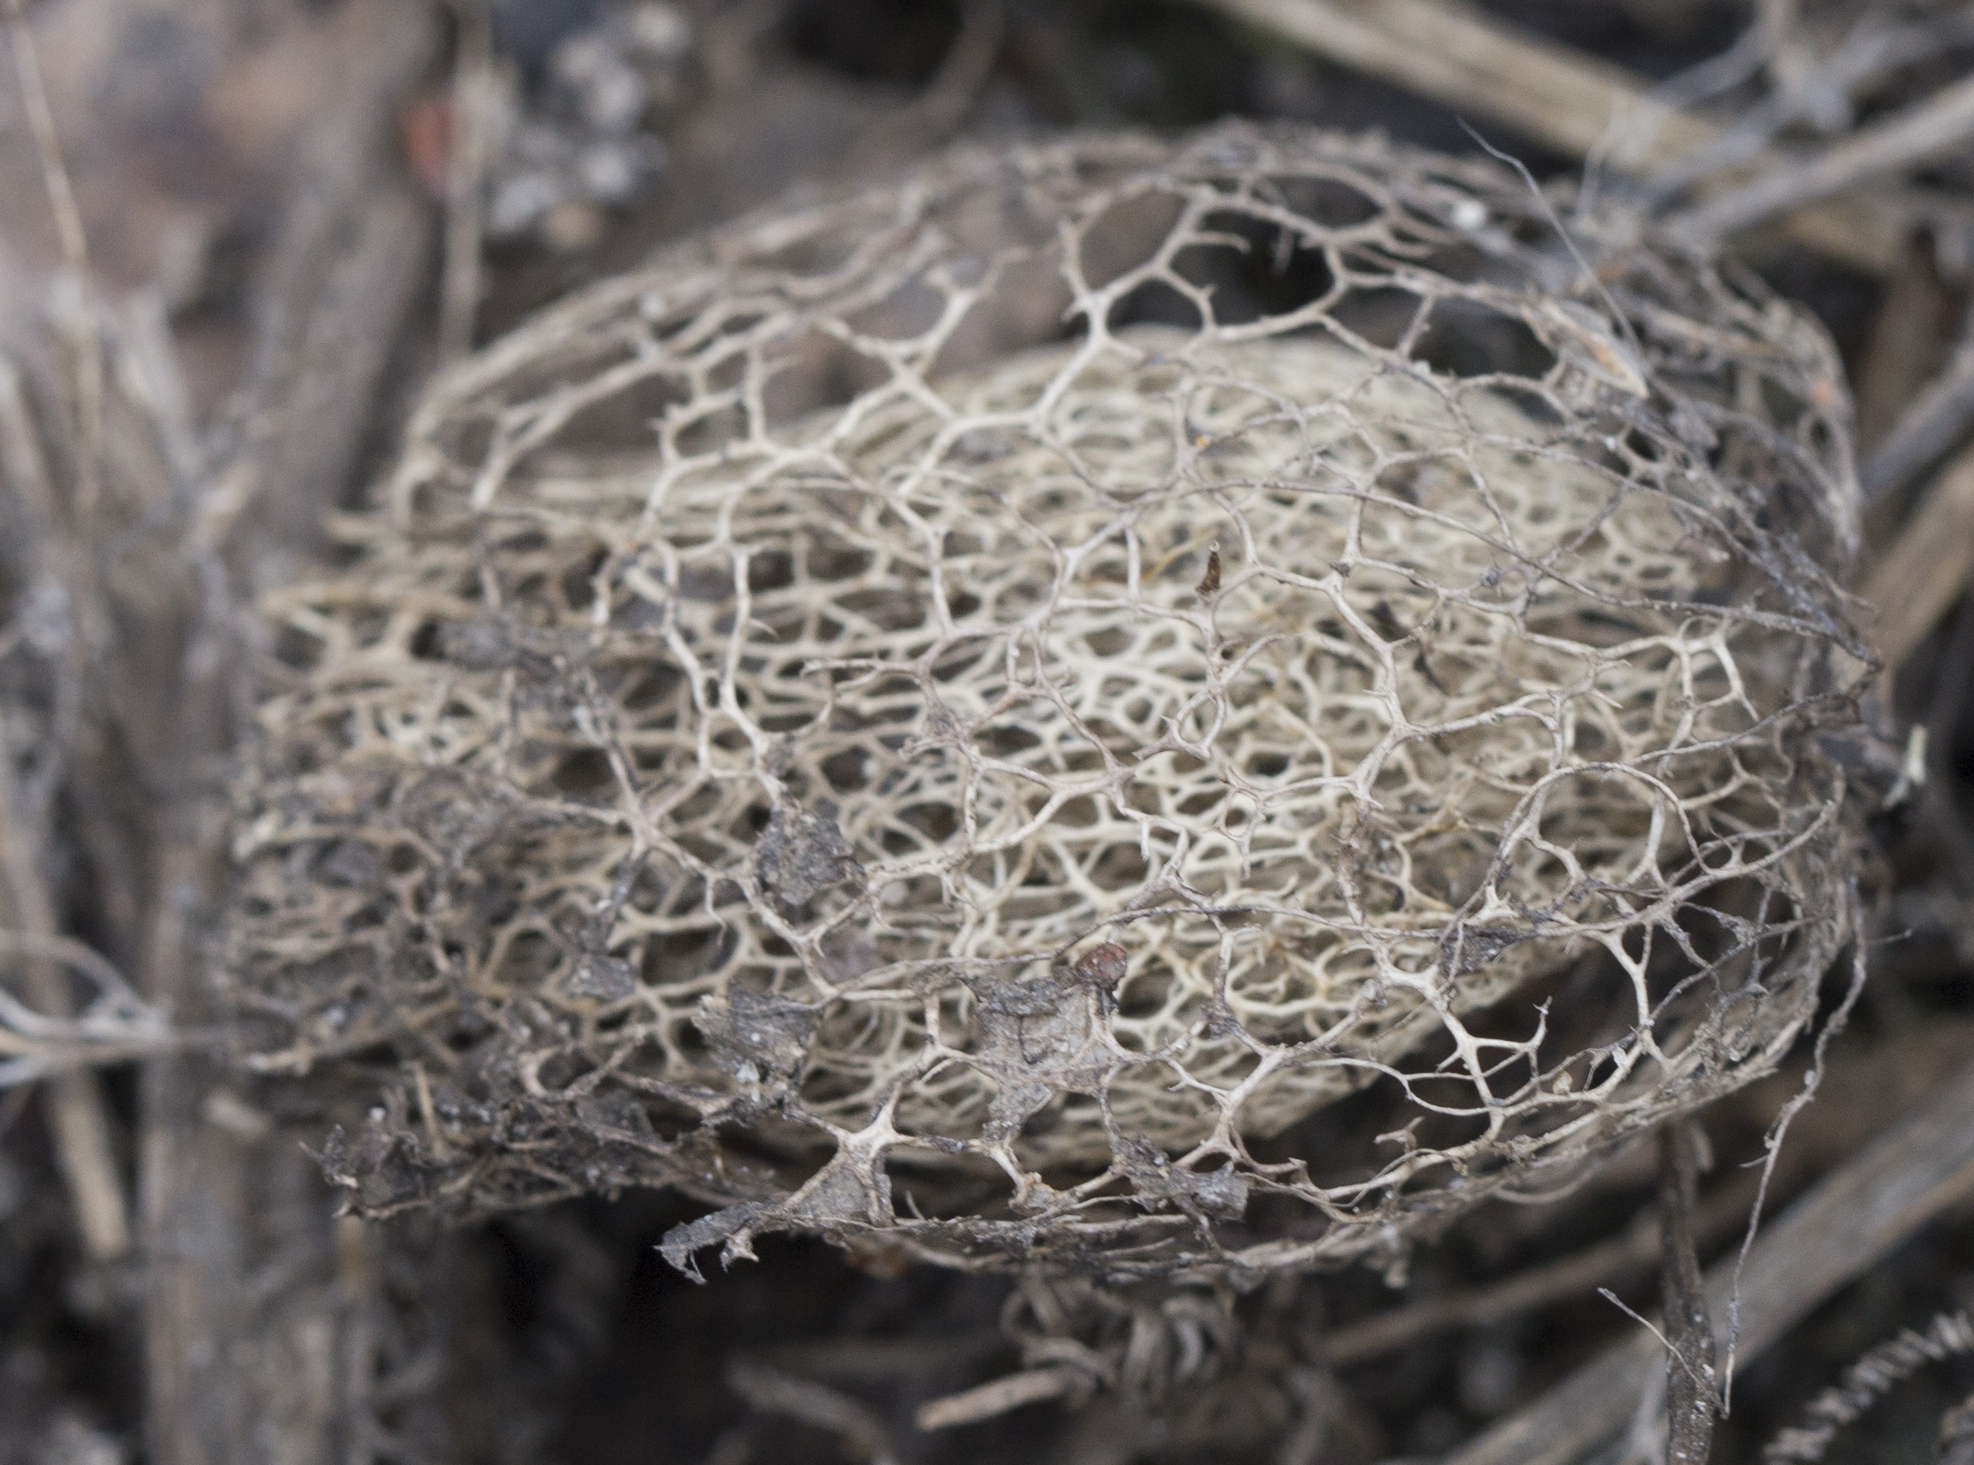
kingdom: Plantae
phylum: Tracheophyta
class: Magnoliopsida
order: Cucurbitales
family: Cucurbitaceae
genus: Echinocystis
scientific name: Echinocystis lobata
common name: Wild cucumber
